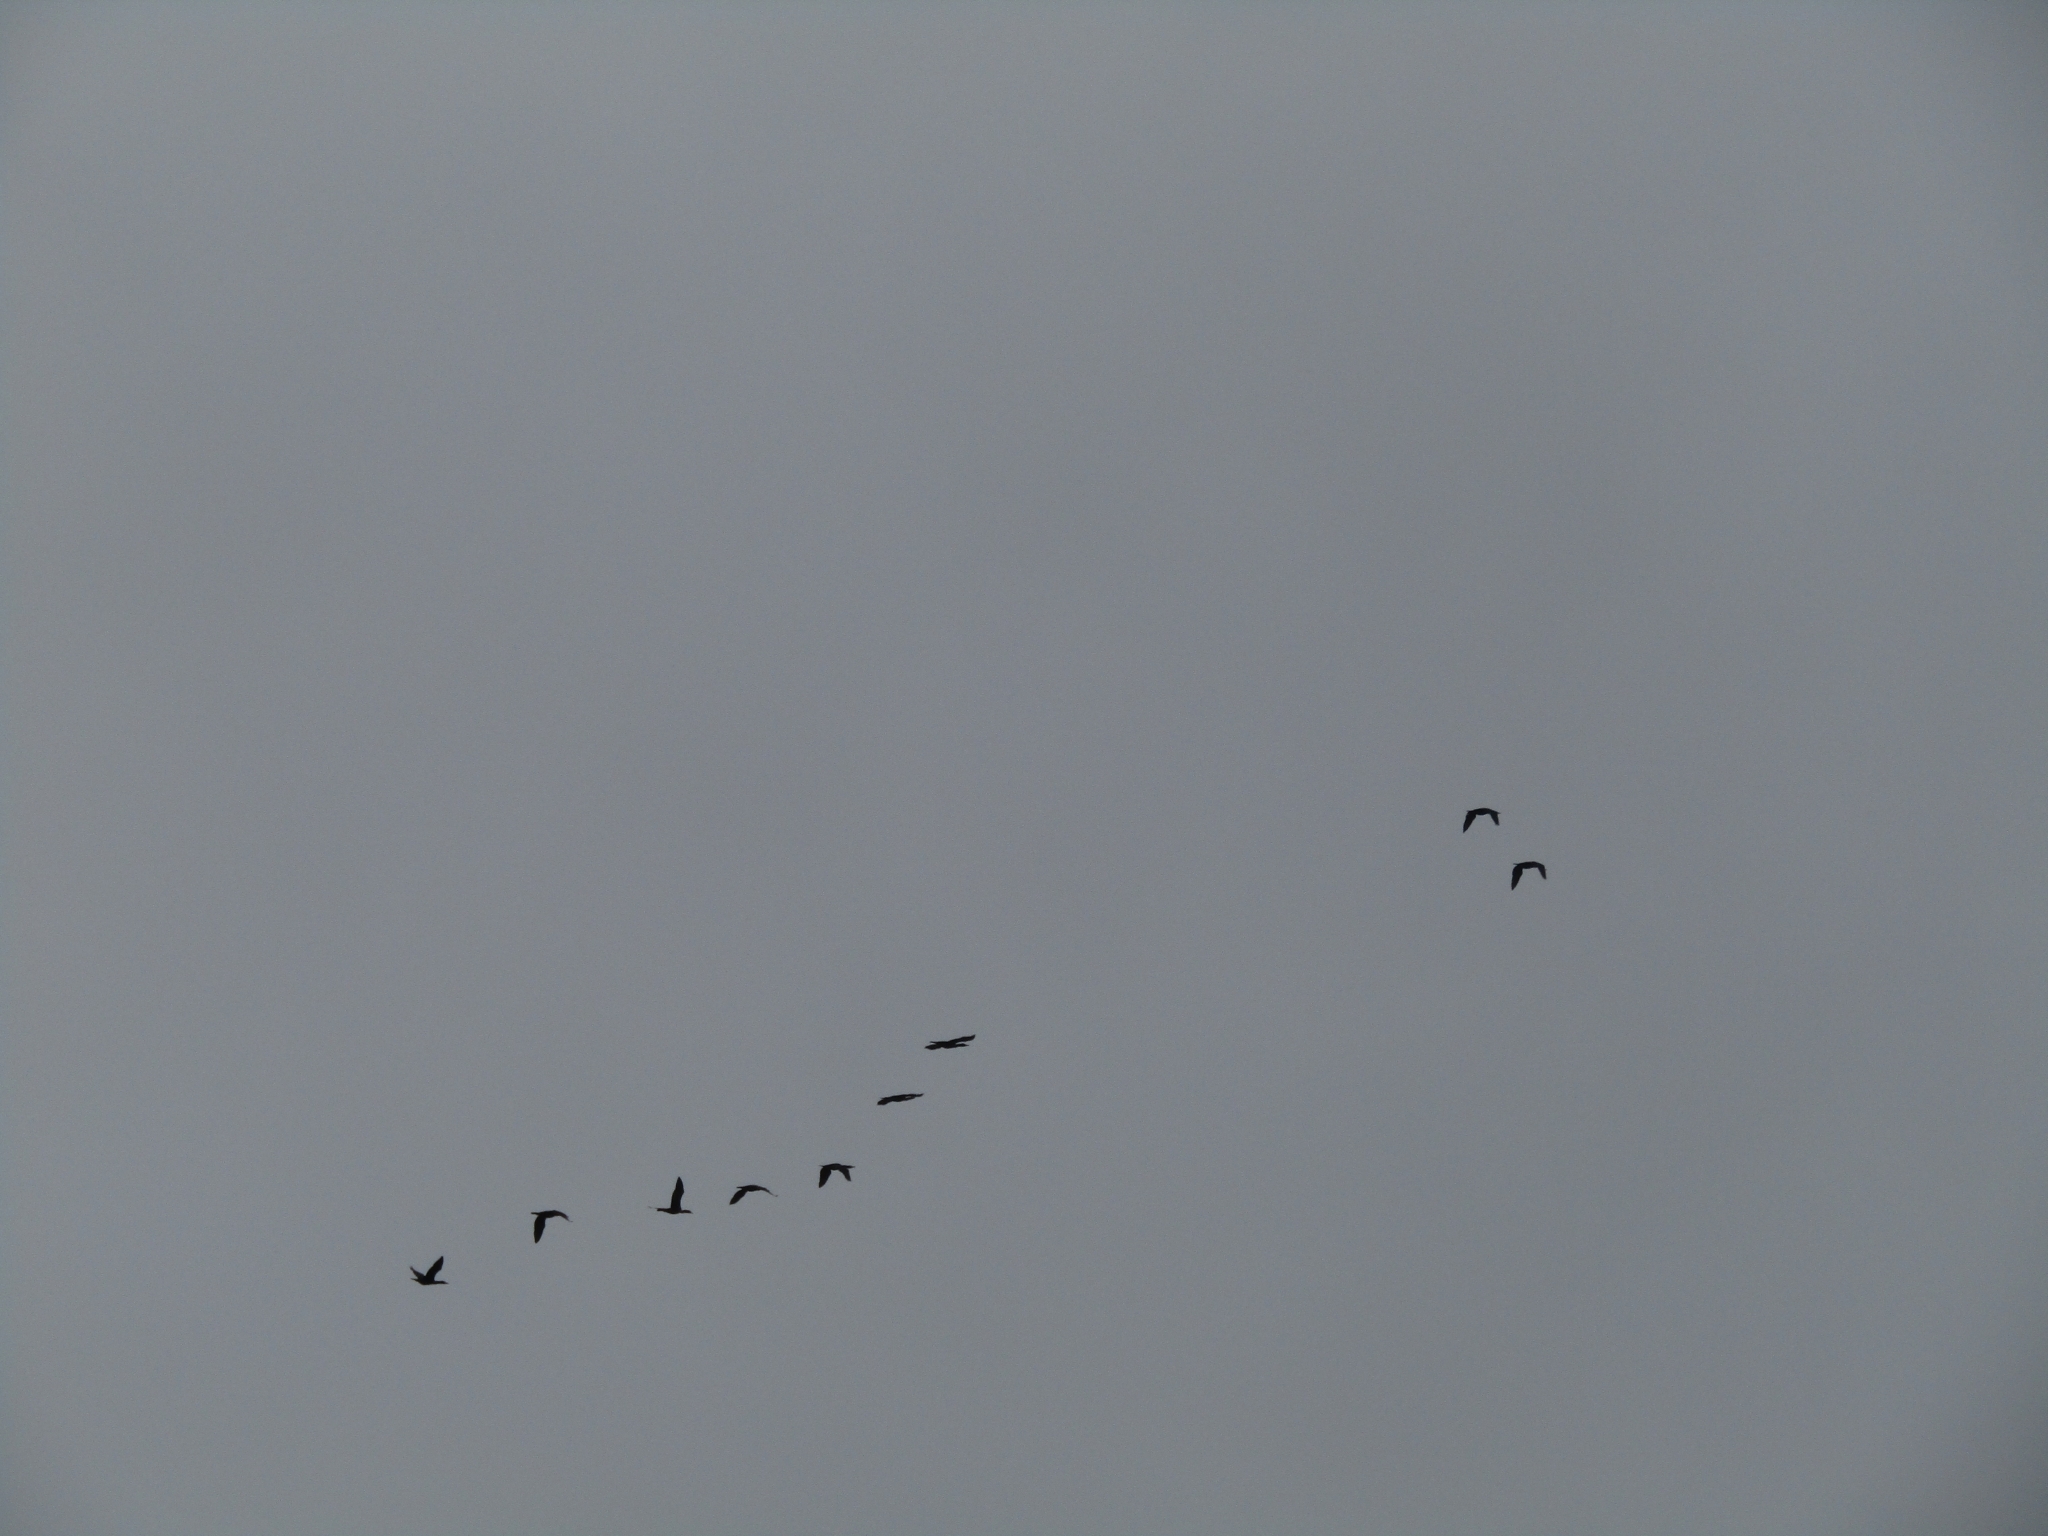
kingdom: Animalia
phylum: Chordata
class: Aves
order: Suliformes
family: Phalacrocoracidae
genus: Phalacrocorax
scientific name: Phalacrocorax auritus
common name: Double-crested cormorant
